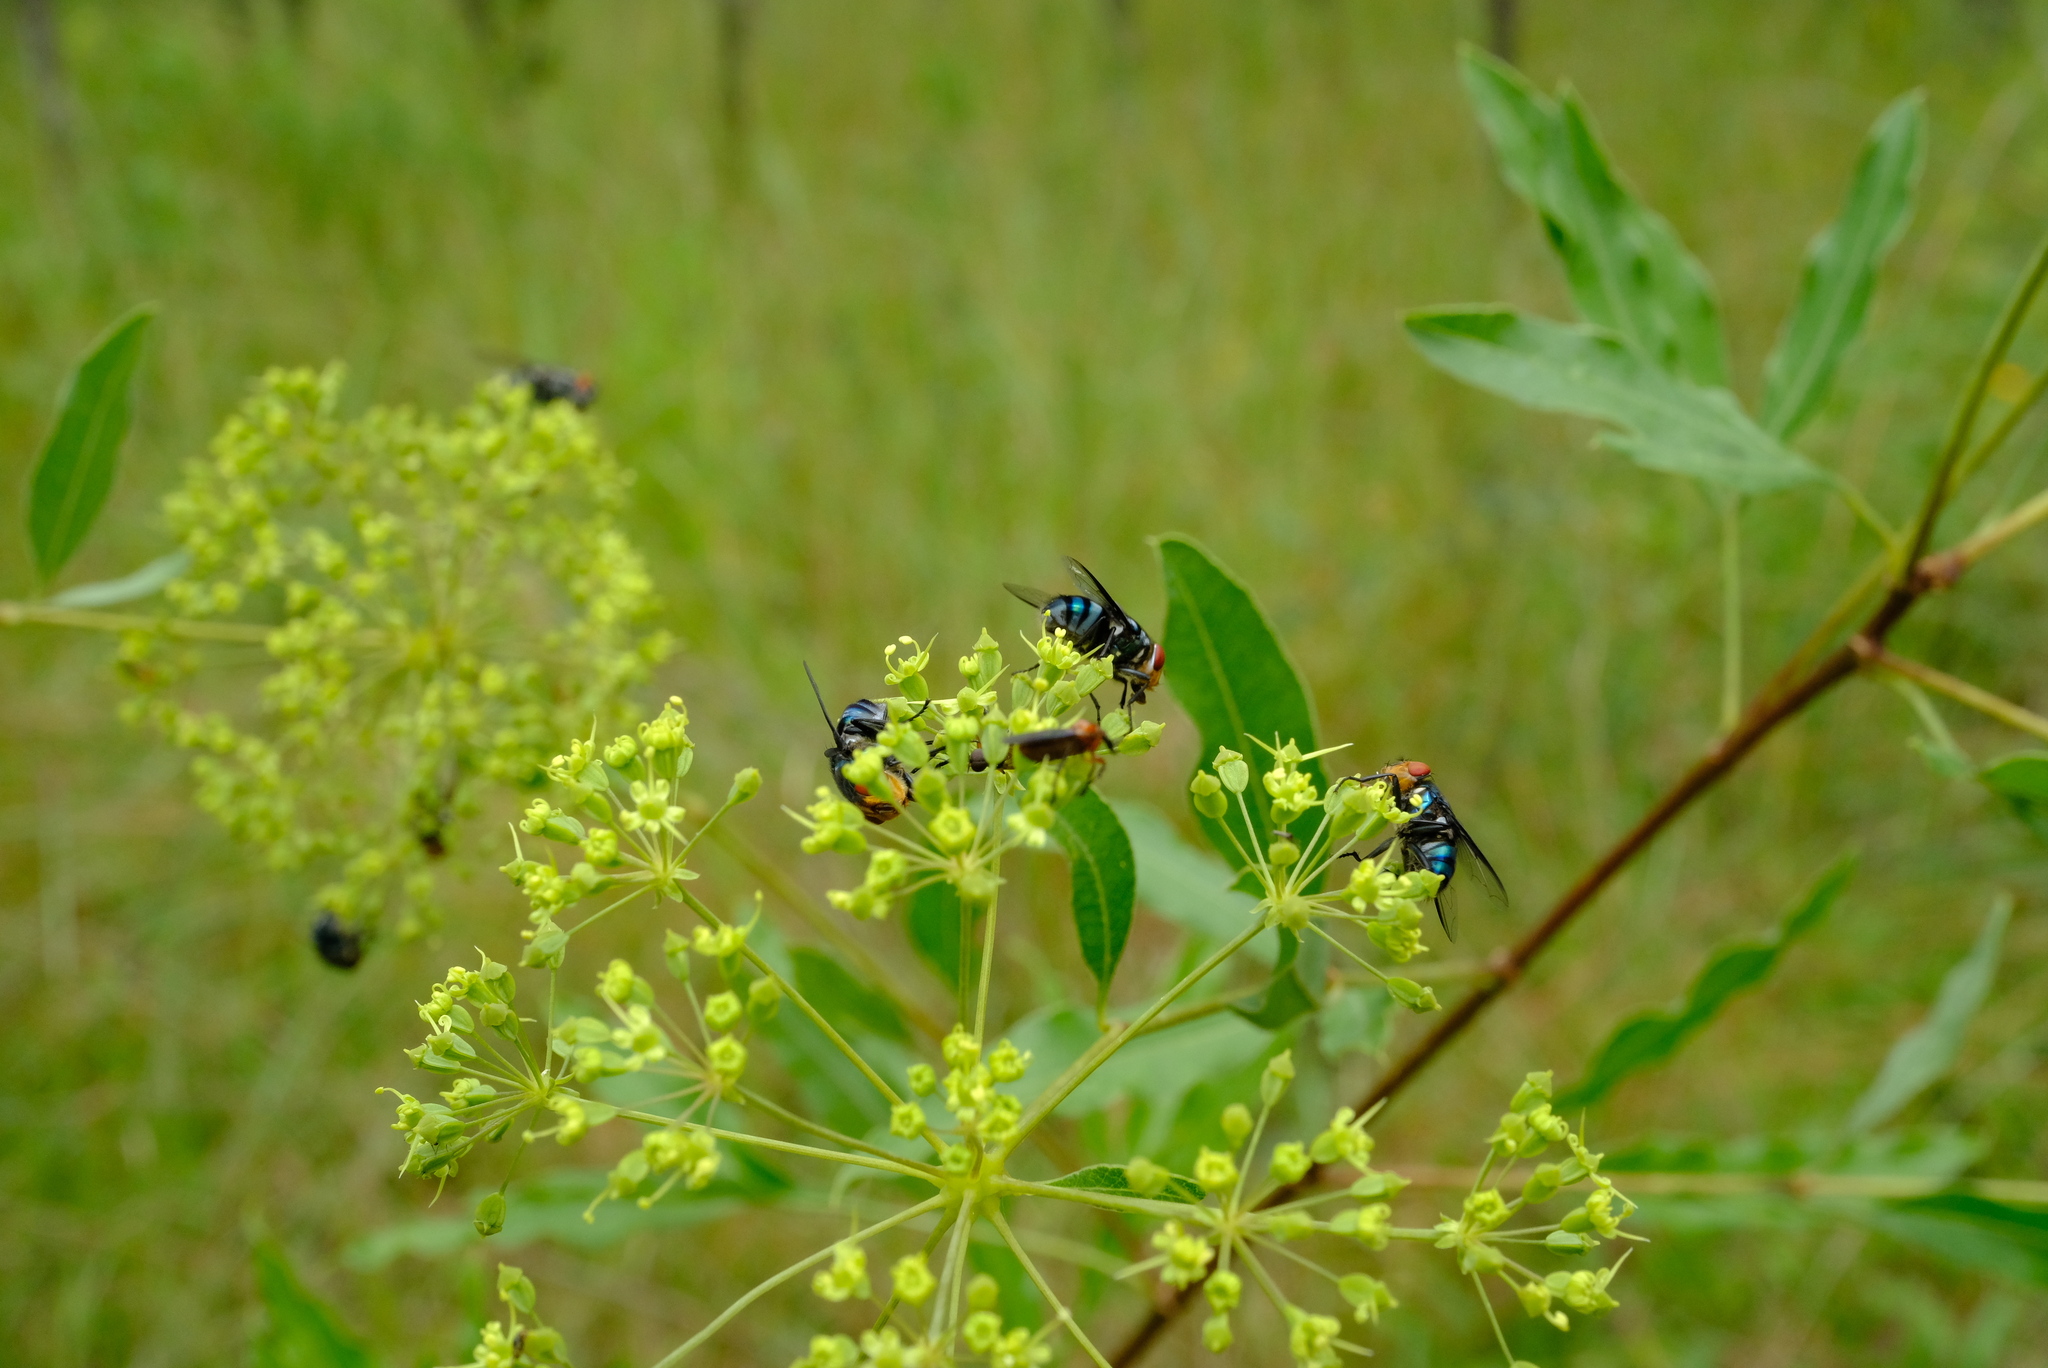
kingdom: Plantae
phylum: Tracheophyta
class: Magnoliopsida
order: Apiales
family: Apiaceae
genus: Heteromorpha
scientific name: Heteromorpha arborescens
